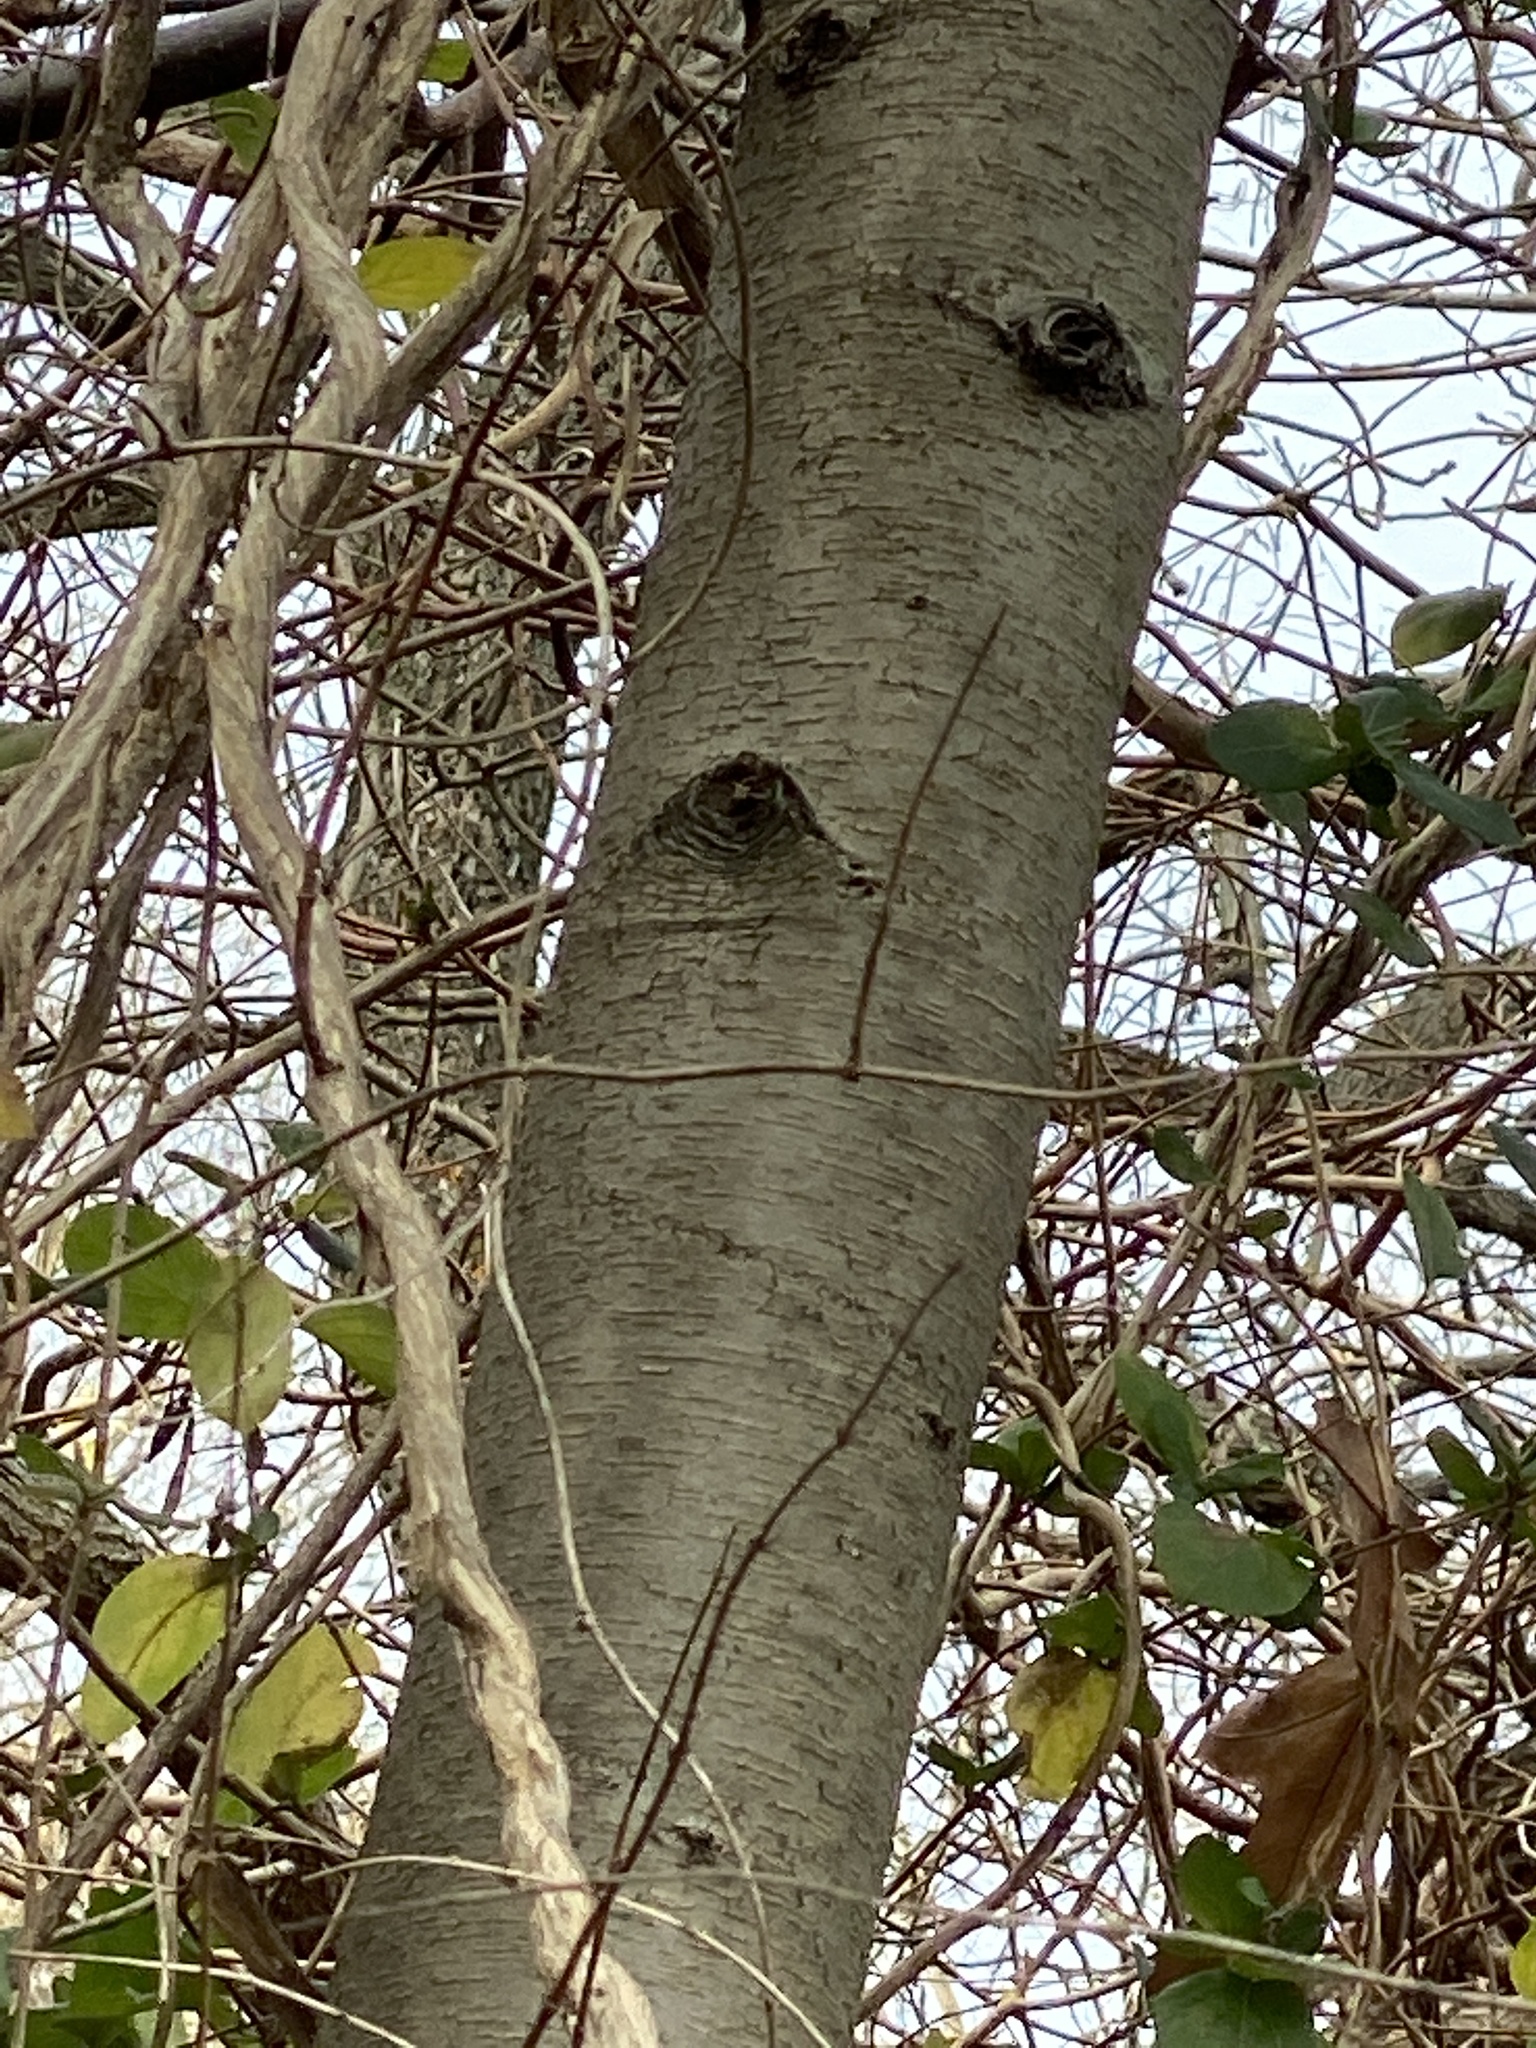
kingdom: Plantae
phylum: Tracheophyta
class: Magnoliopsida
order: Fagales
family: Betulaceae
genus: Betula
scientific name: Betula lenta
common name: Black birch
